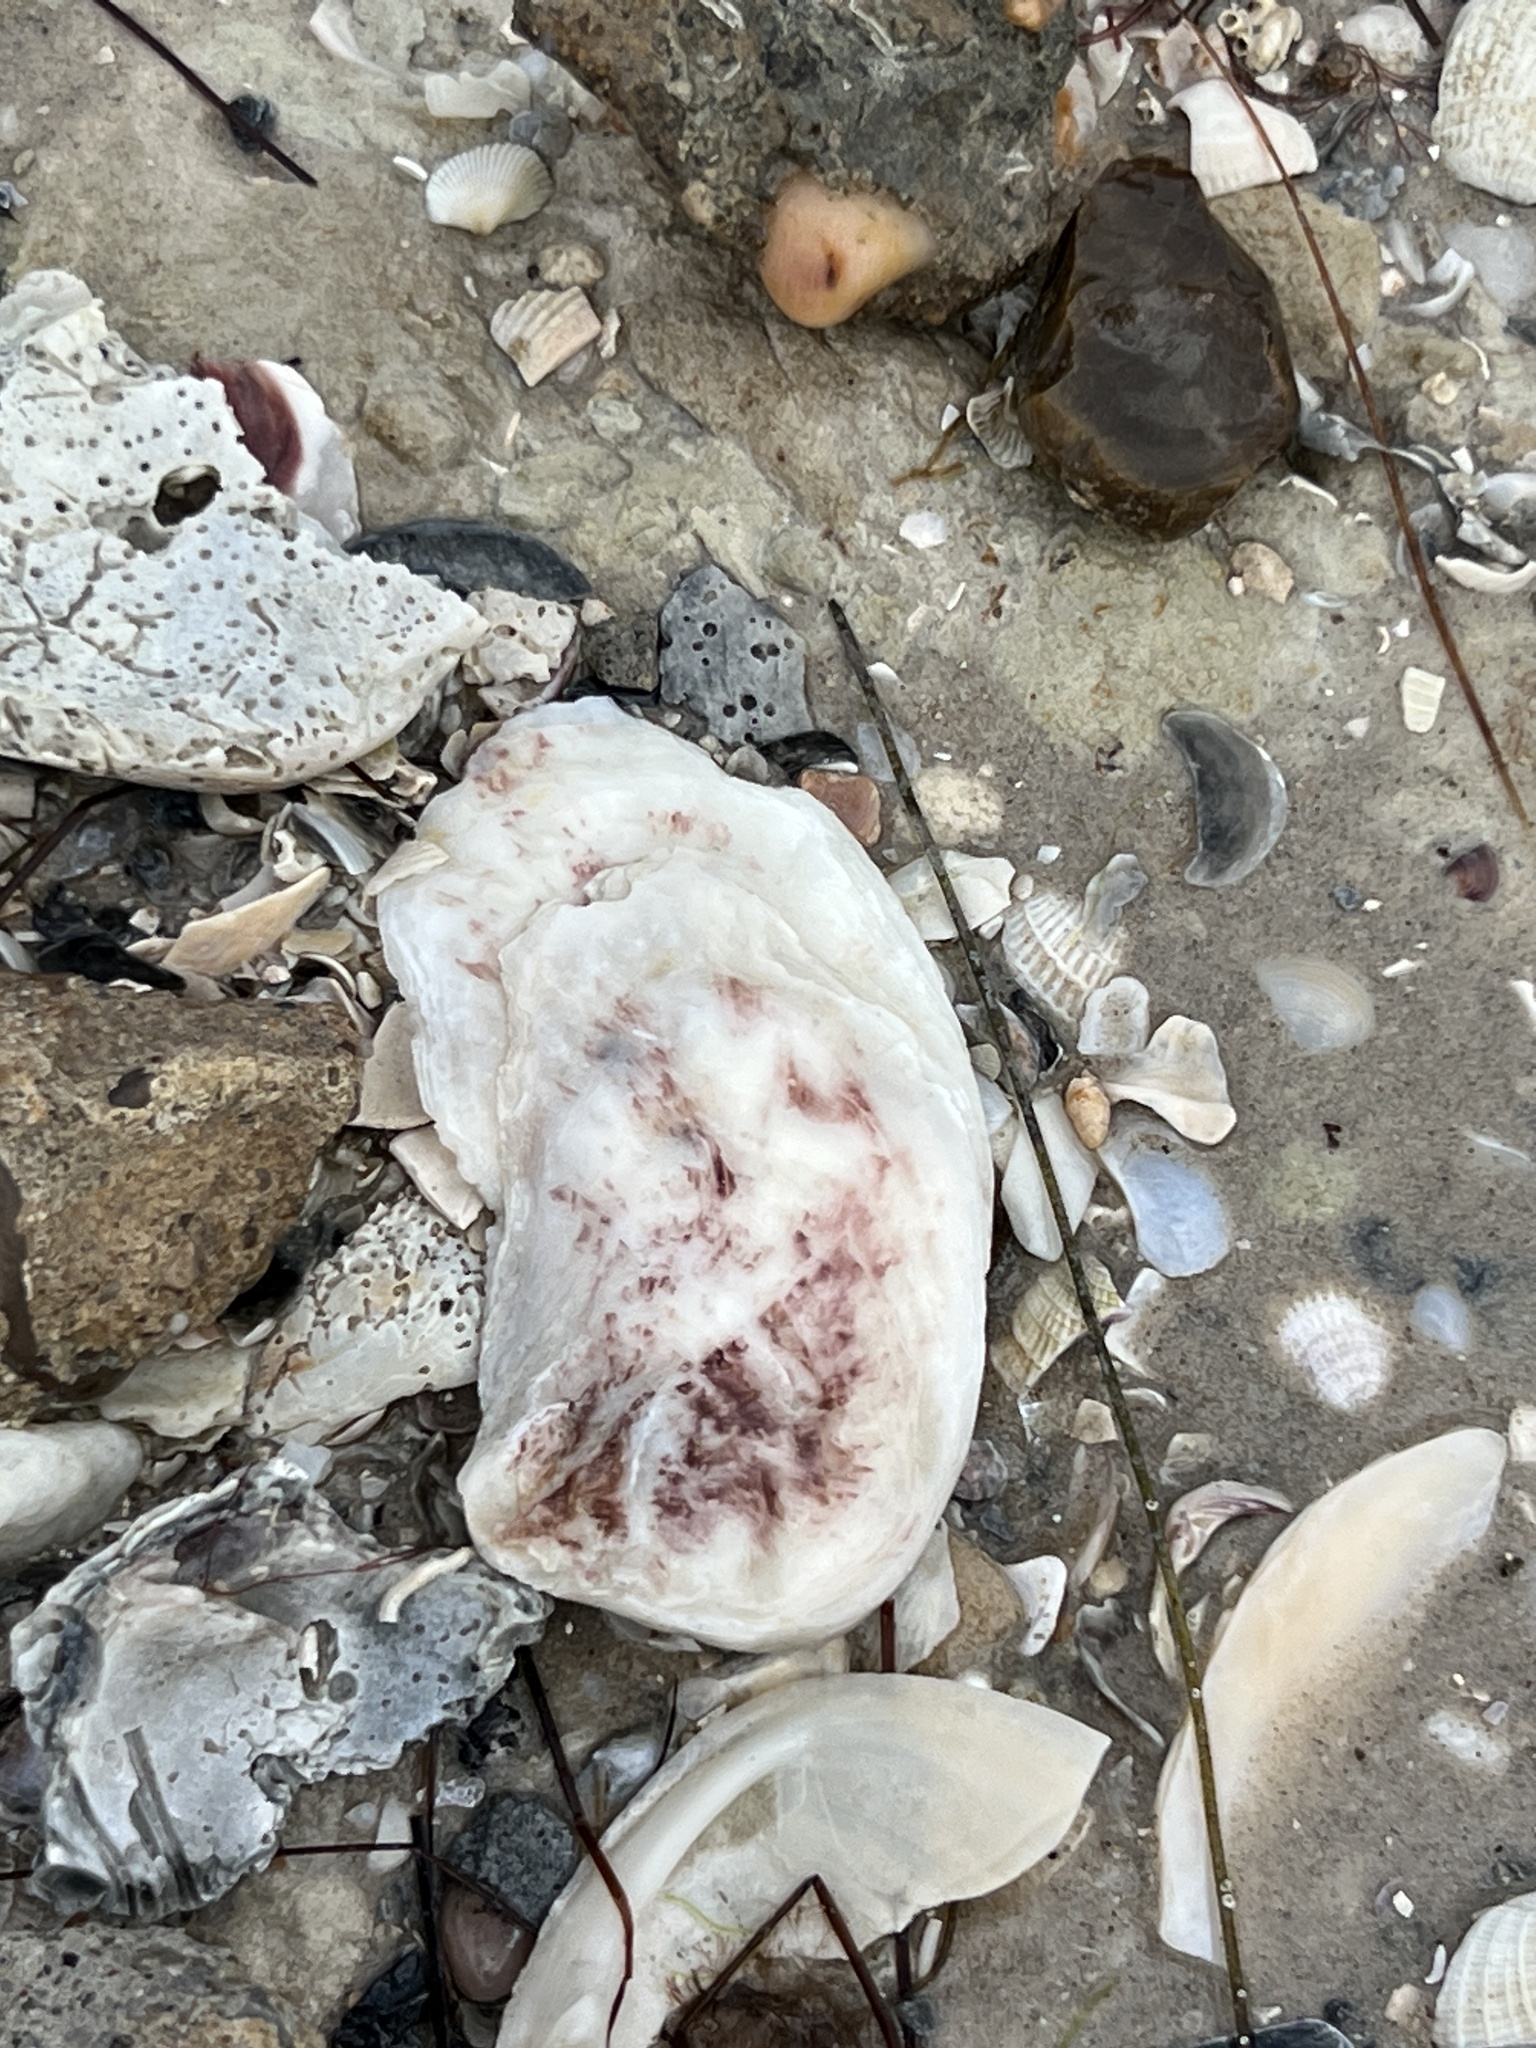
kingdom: Animalia
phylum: Mollusca
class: Bivalvia
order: Ostreida
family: Ostreidae
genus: Crassostrea
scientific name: Crassostrea virginica
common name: American oyster
